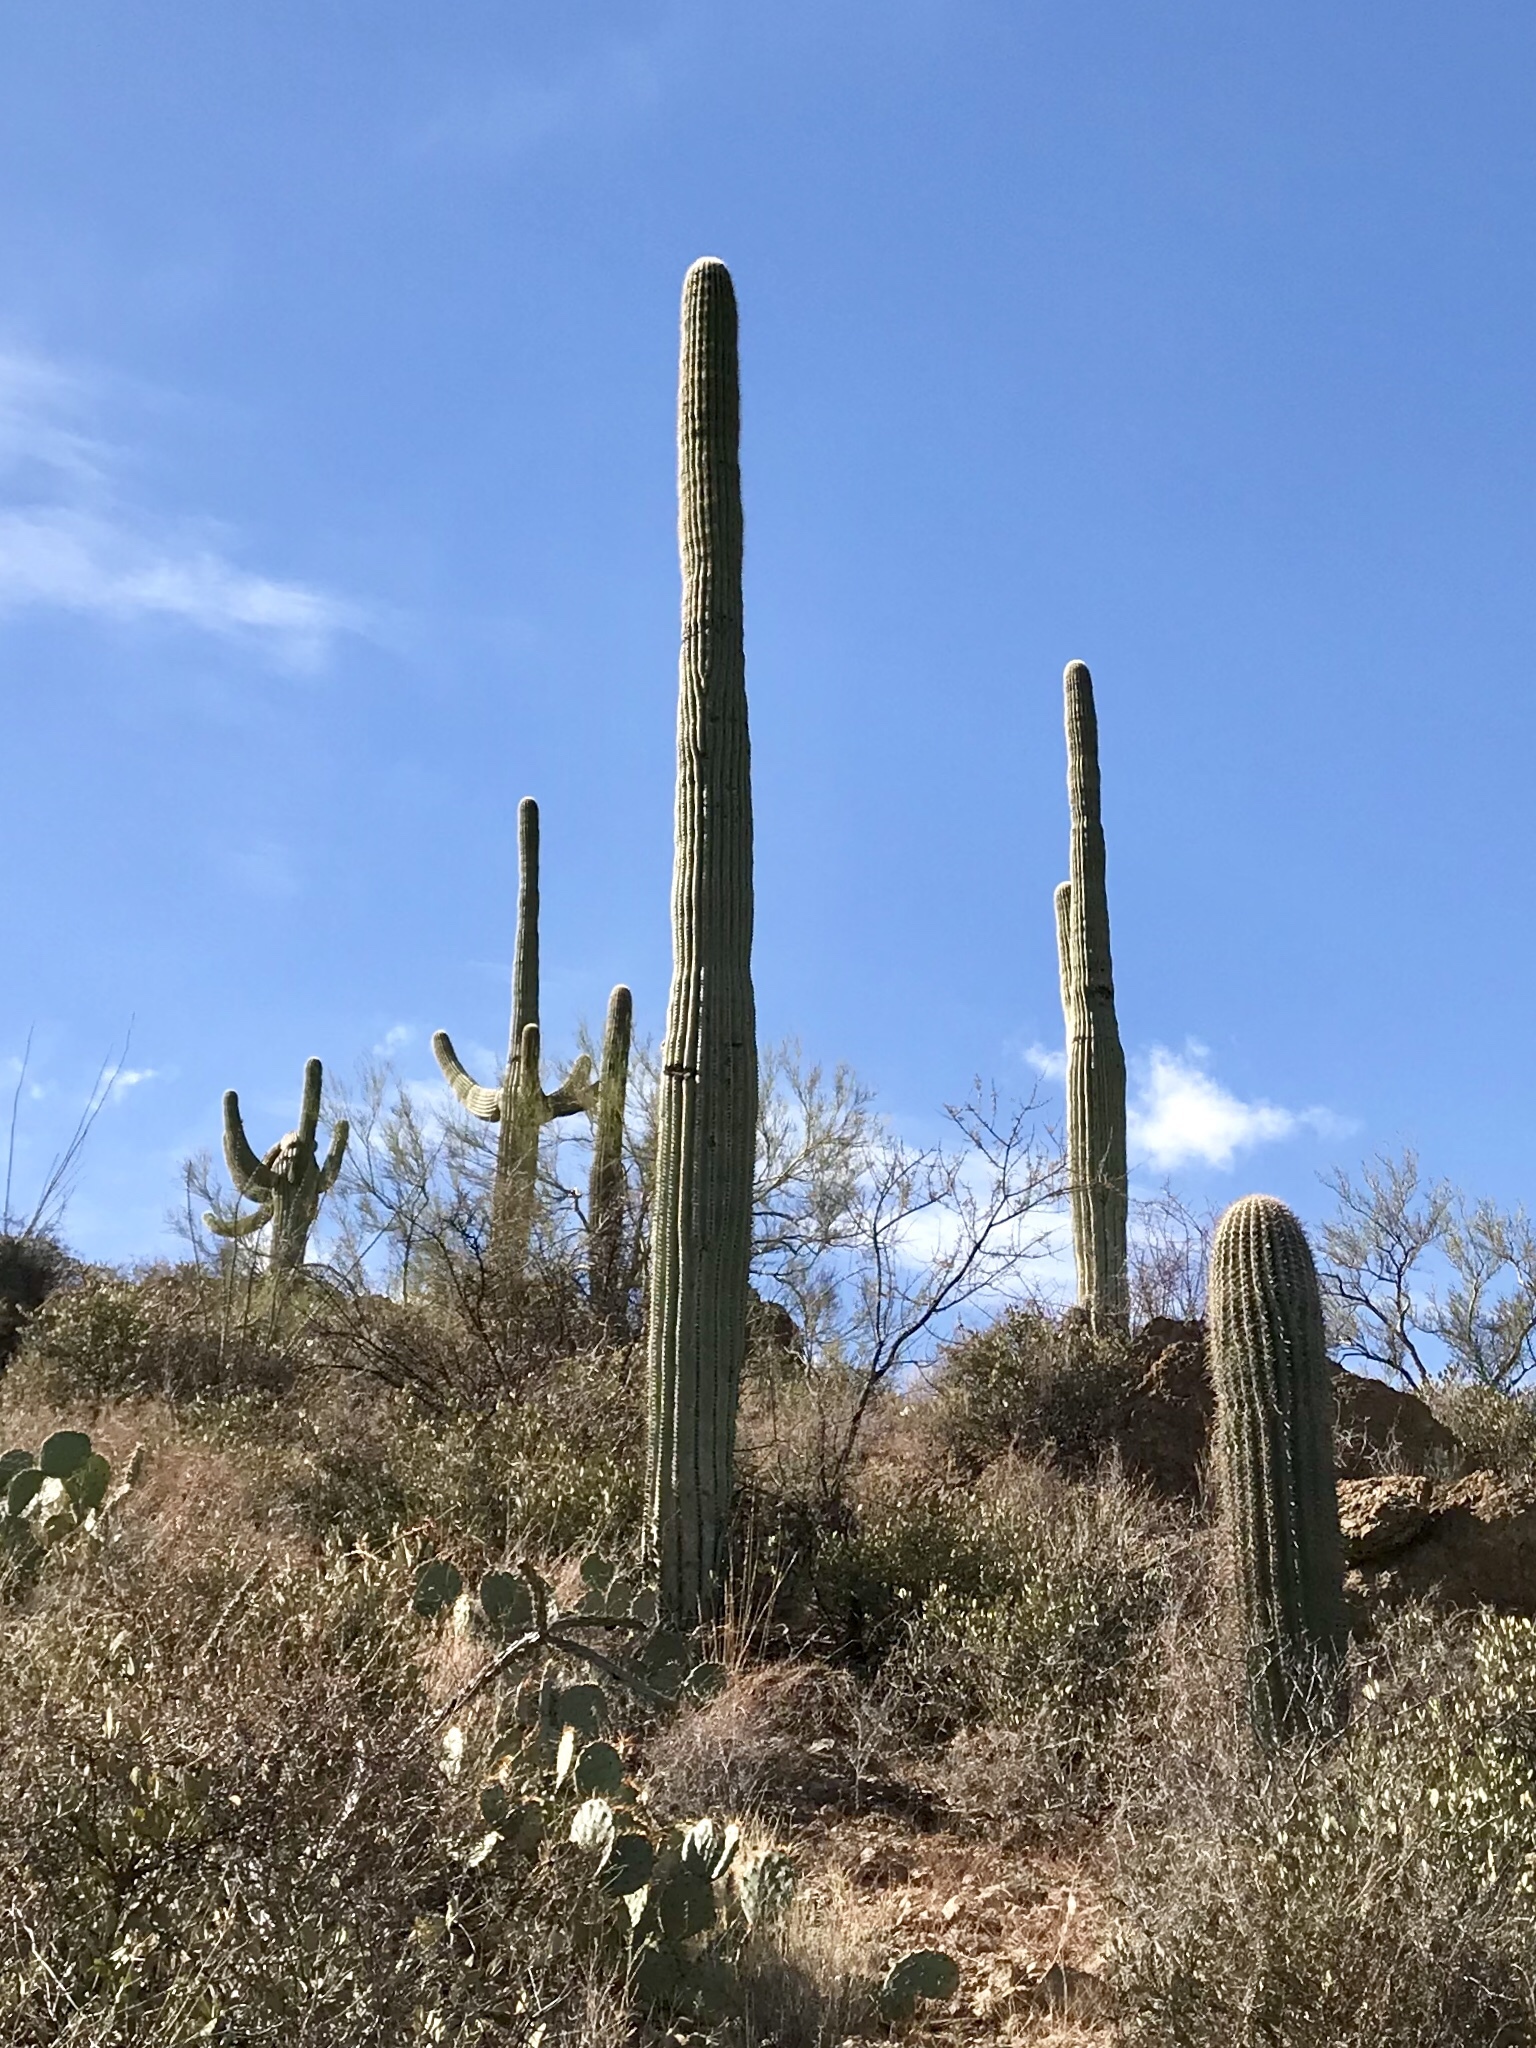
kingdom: Plantae
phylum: Tracheophyta
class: Magnoliopsida
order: Caryophyllales
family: Cactaceae
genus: Carnegiea
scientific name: Carnegiea gigantea
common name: Saguaro
